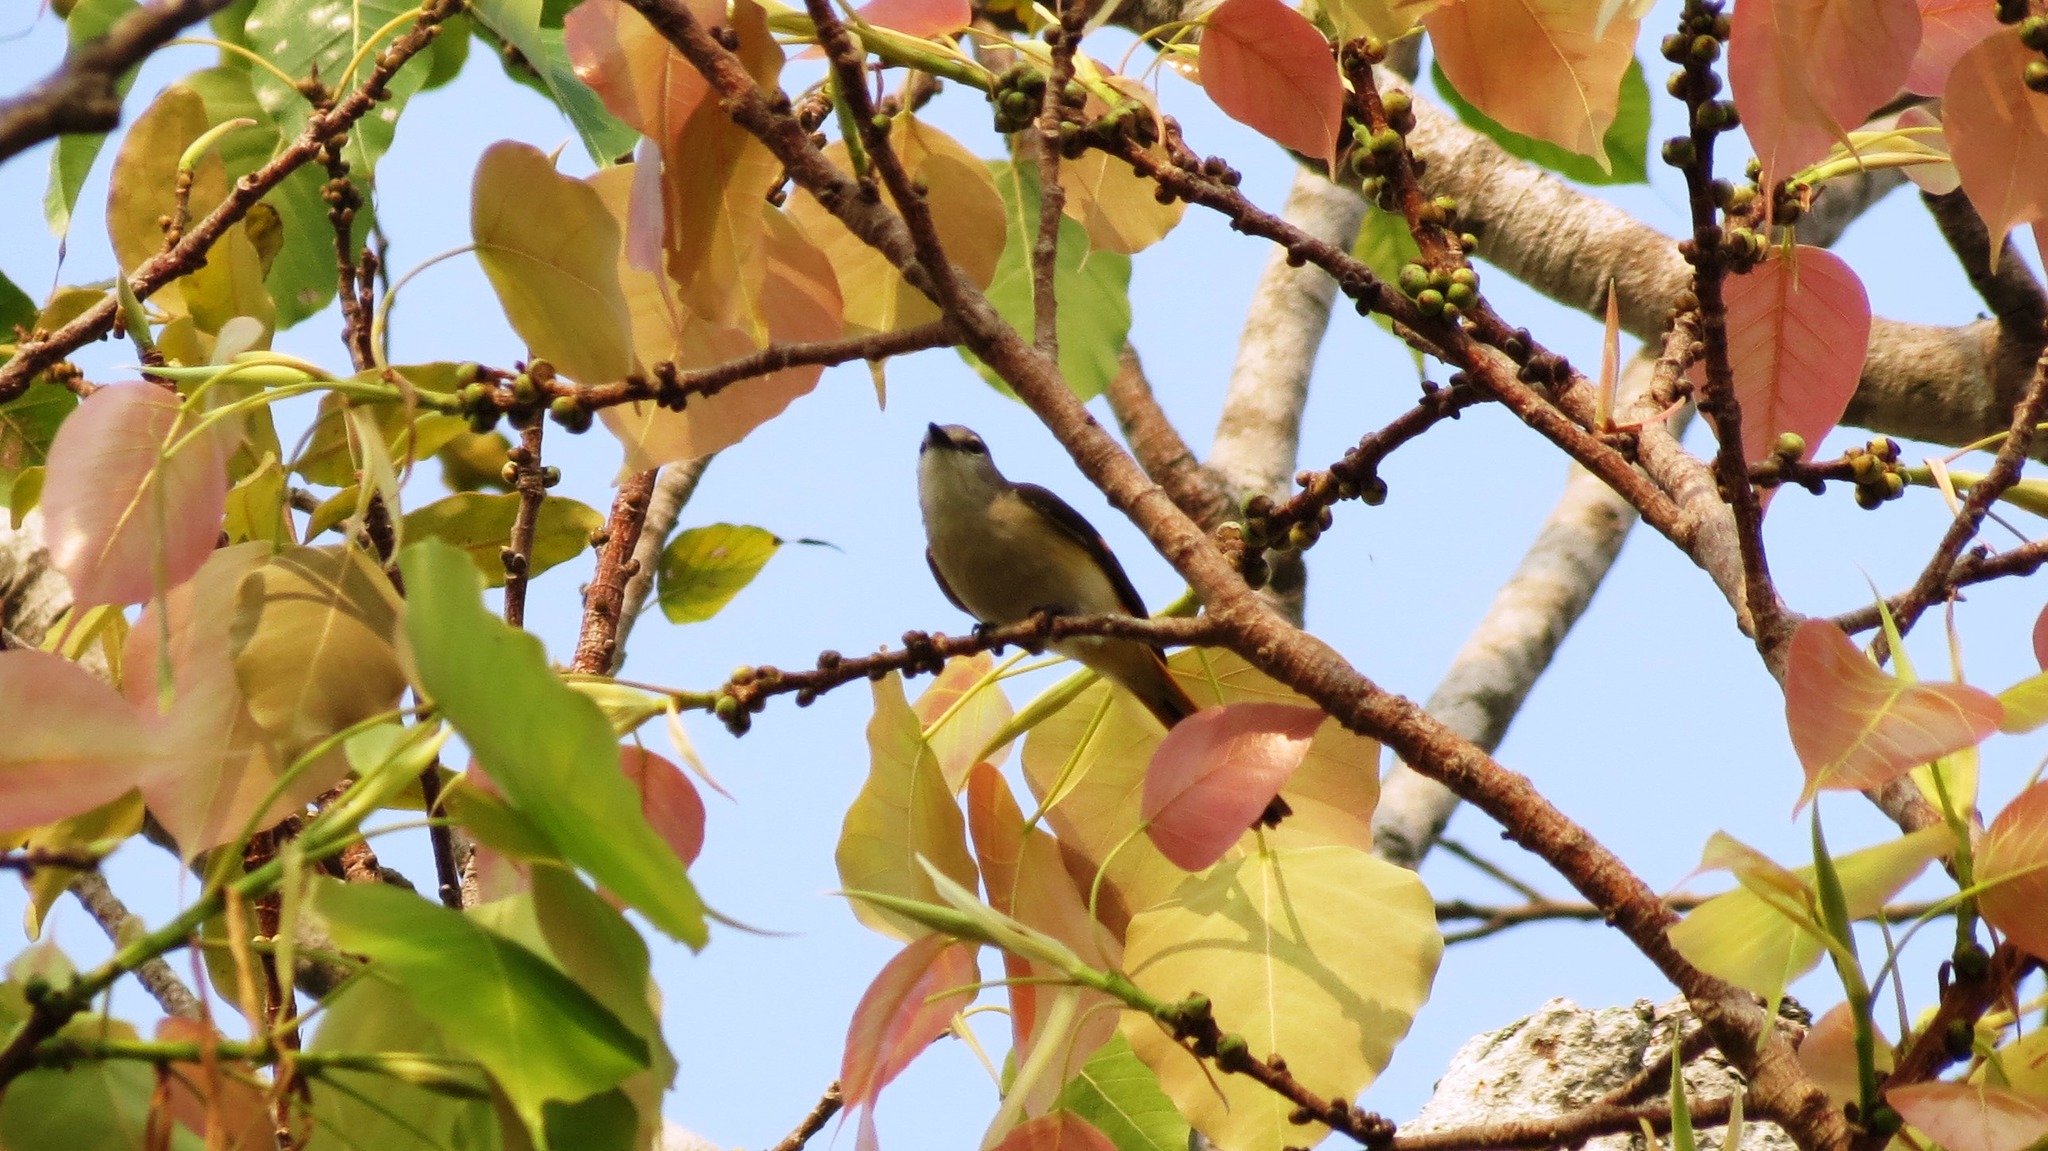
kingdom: Animalia
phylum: Chordata
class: Aves
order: Passeriformes
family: Campephagidae
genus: Pericrocotus
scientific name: Pericrocotus cinnamomeus
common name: Small minivet
